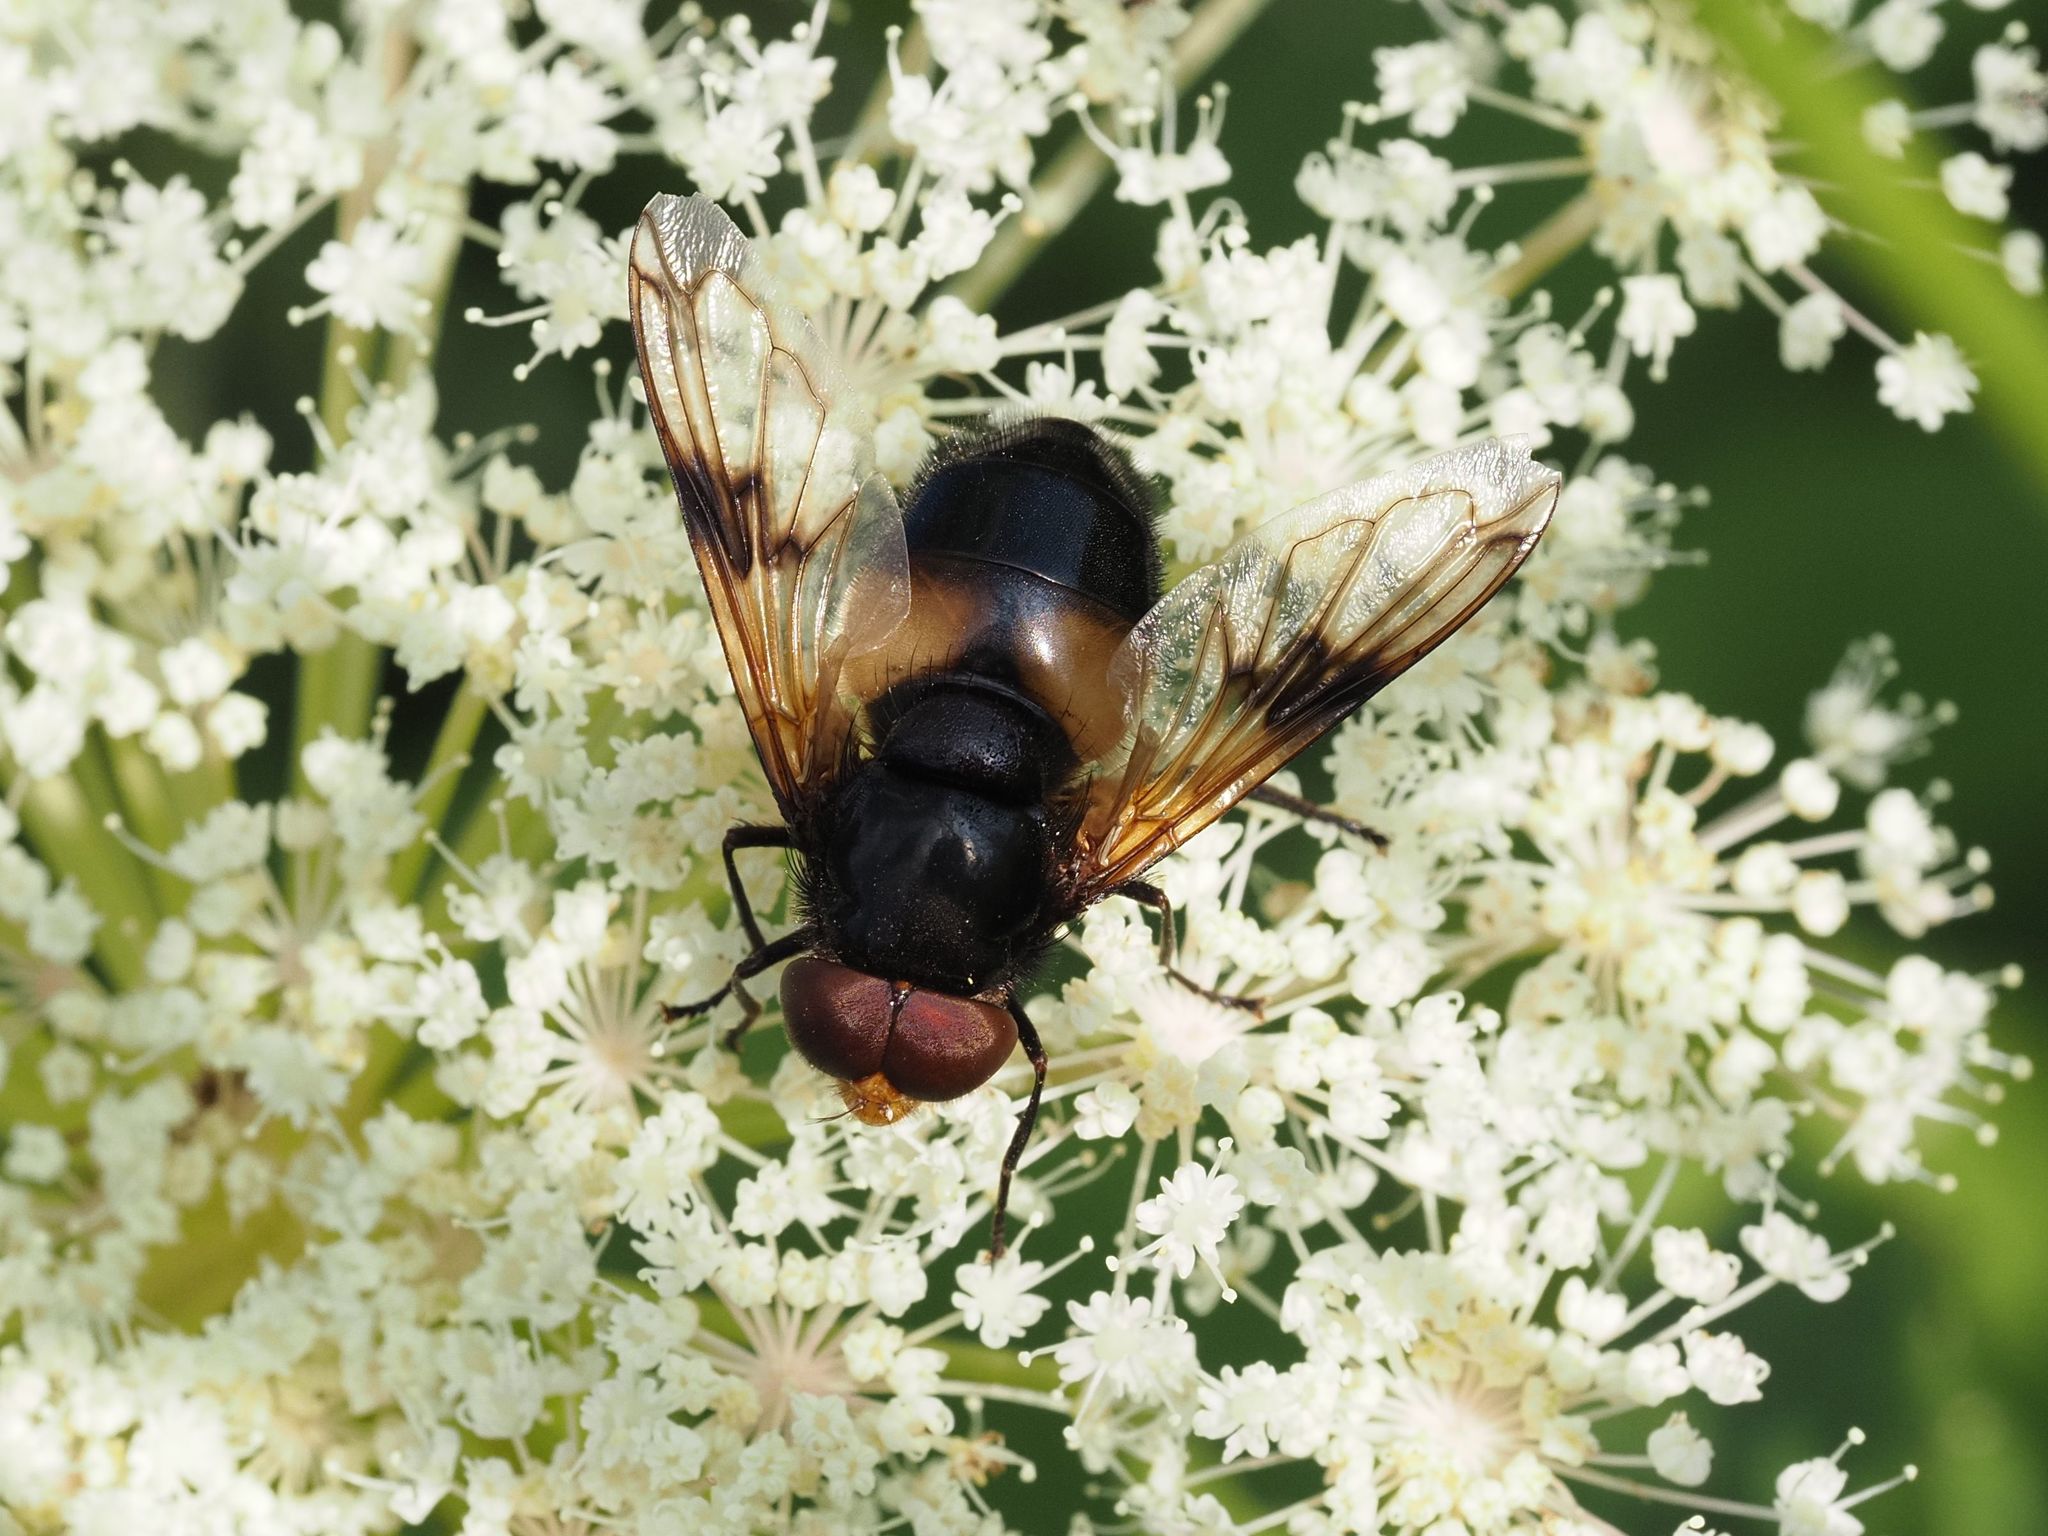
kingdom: Animalia
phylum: Arthropoda
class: Insecta
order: Diptera
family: Syrphidae
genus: Volucella
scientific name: Volucella pellucens
